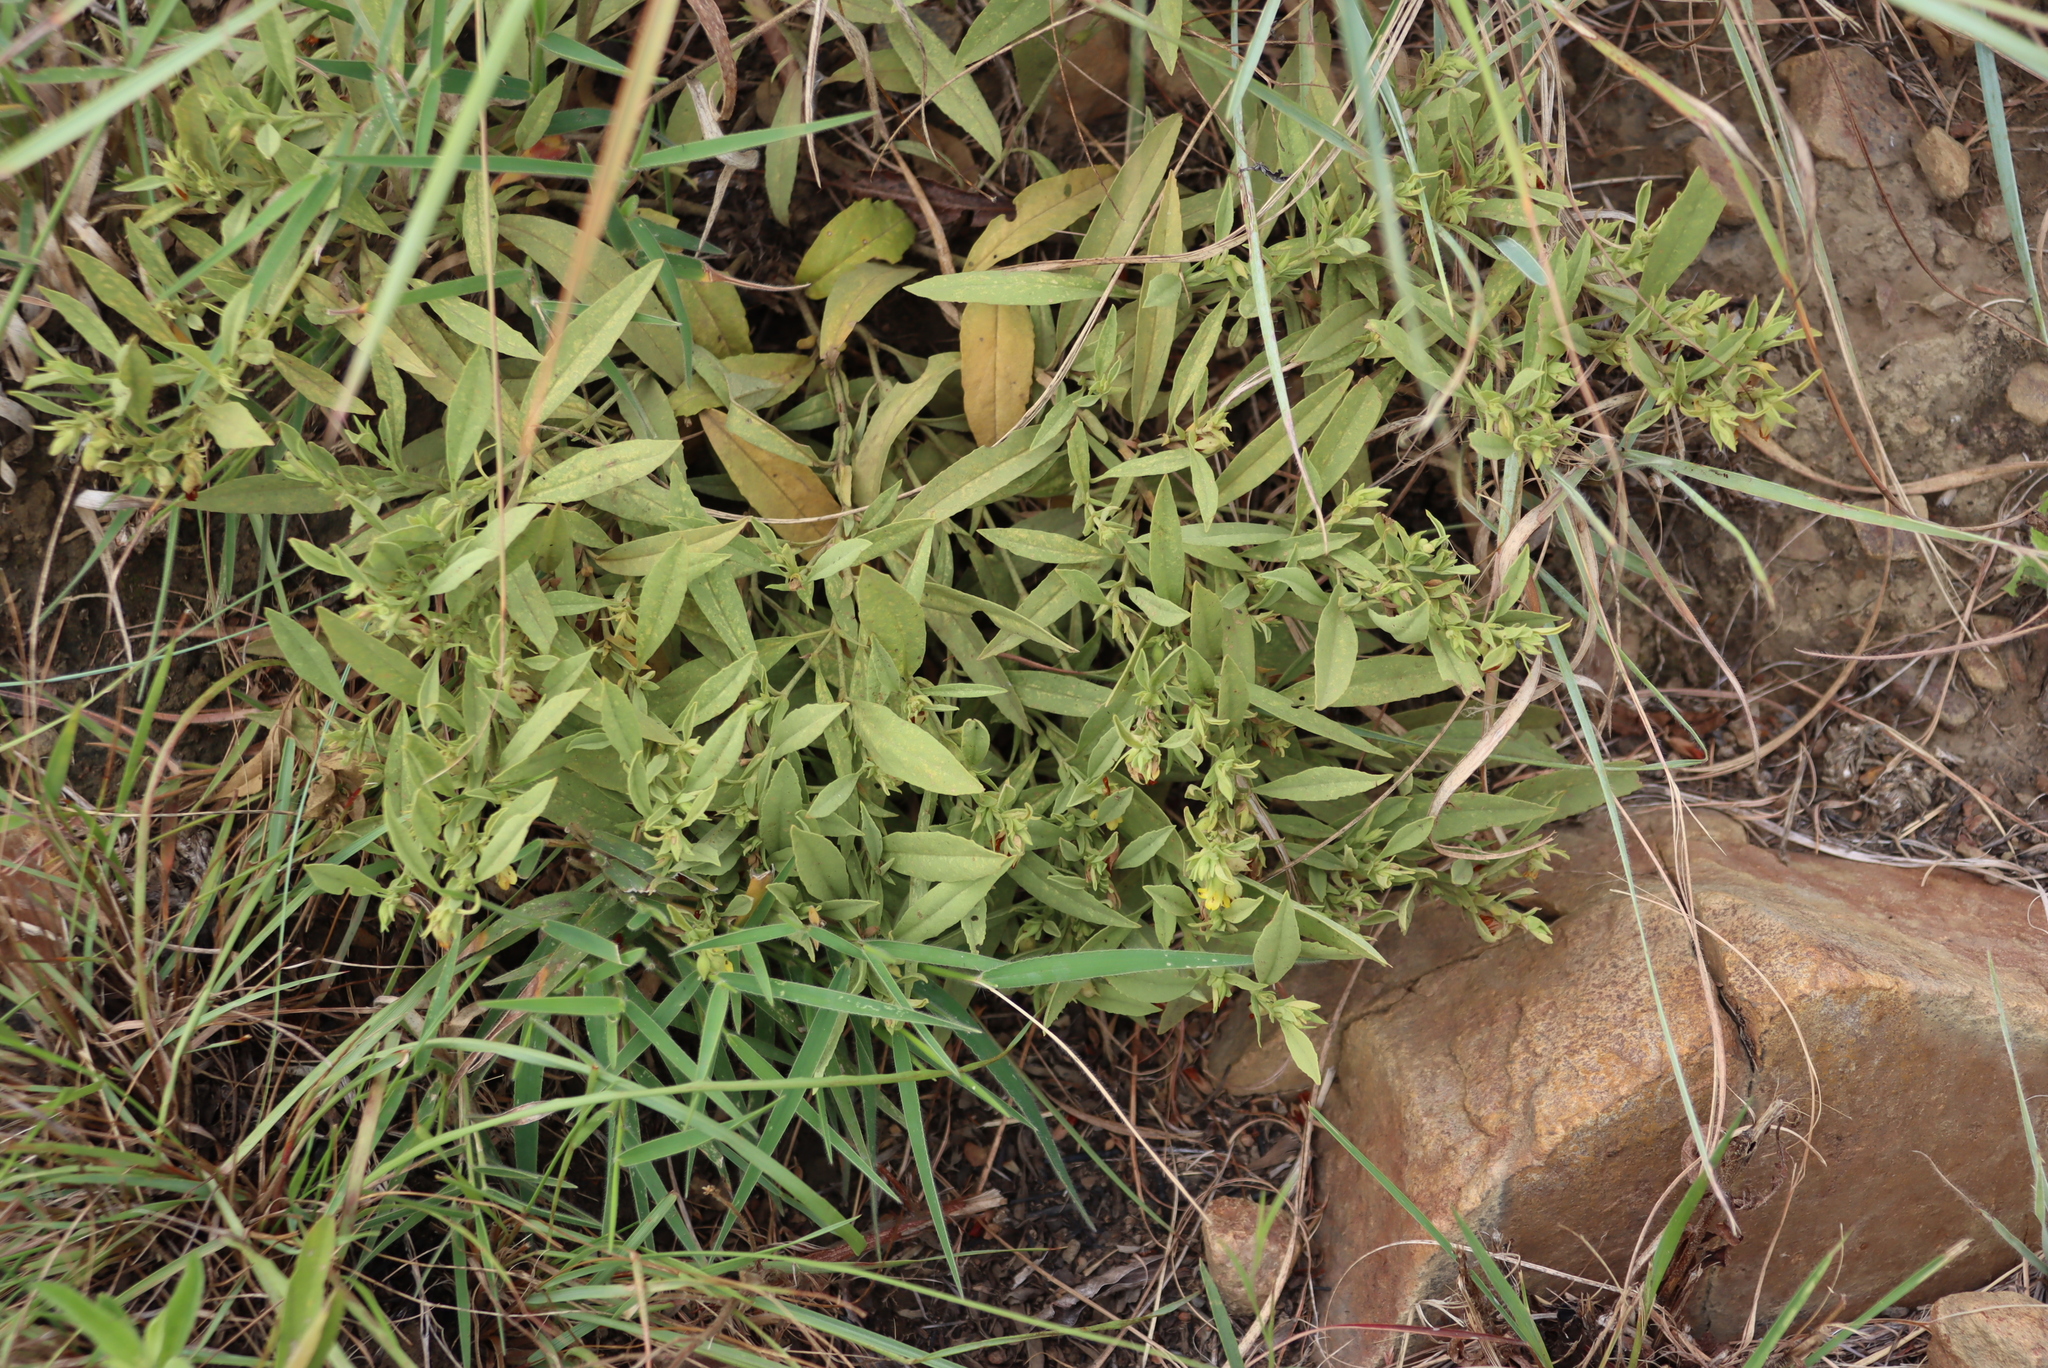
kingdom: Plantae
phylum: Tracheophyta
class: Magnoliopsida
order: Malvales
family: Malvaceae
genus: Hermannia
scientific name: Hermannia montana
